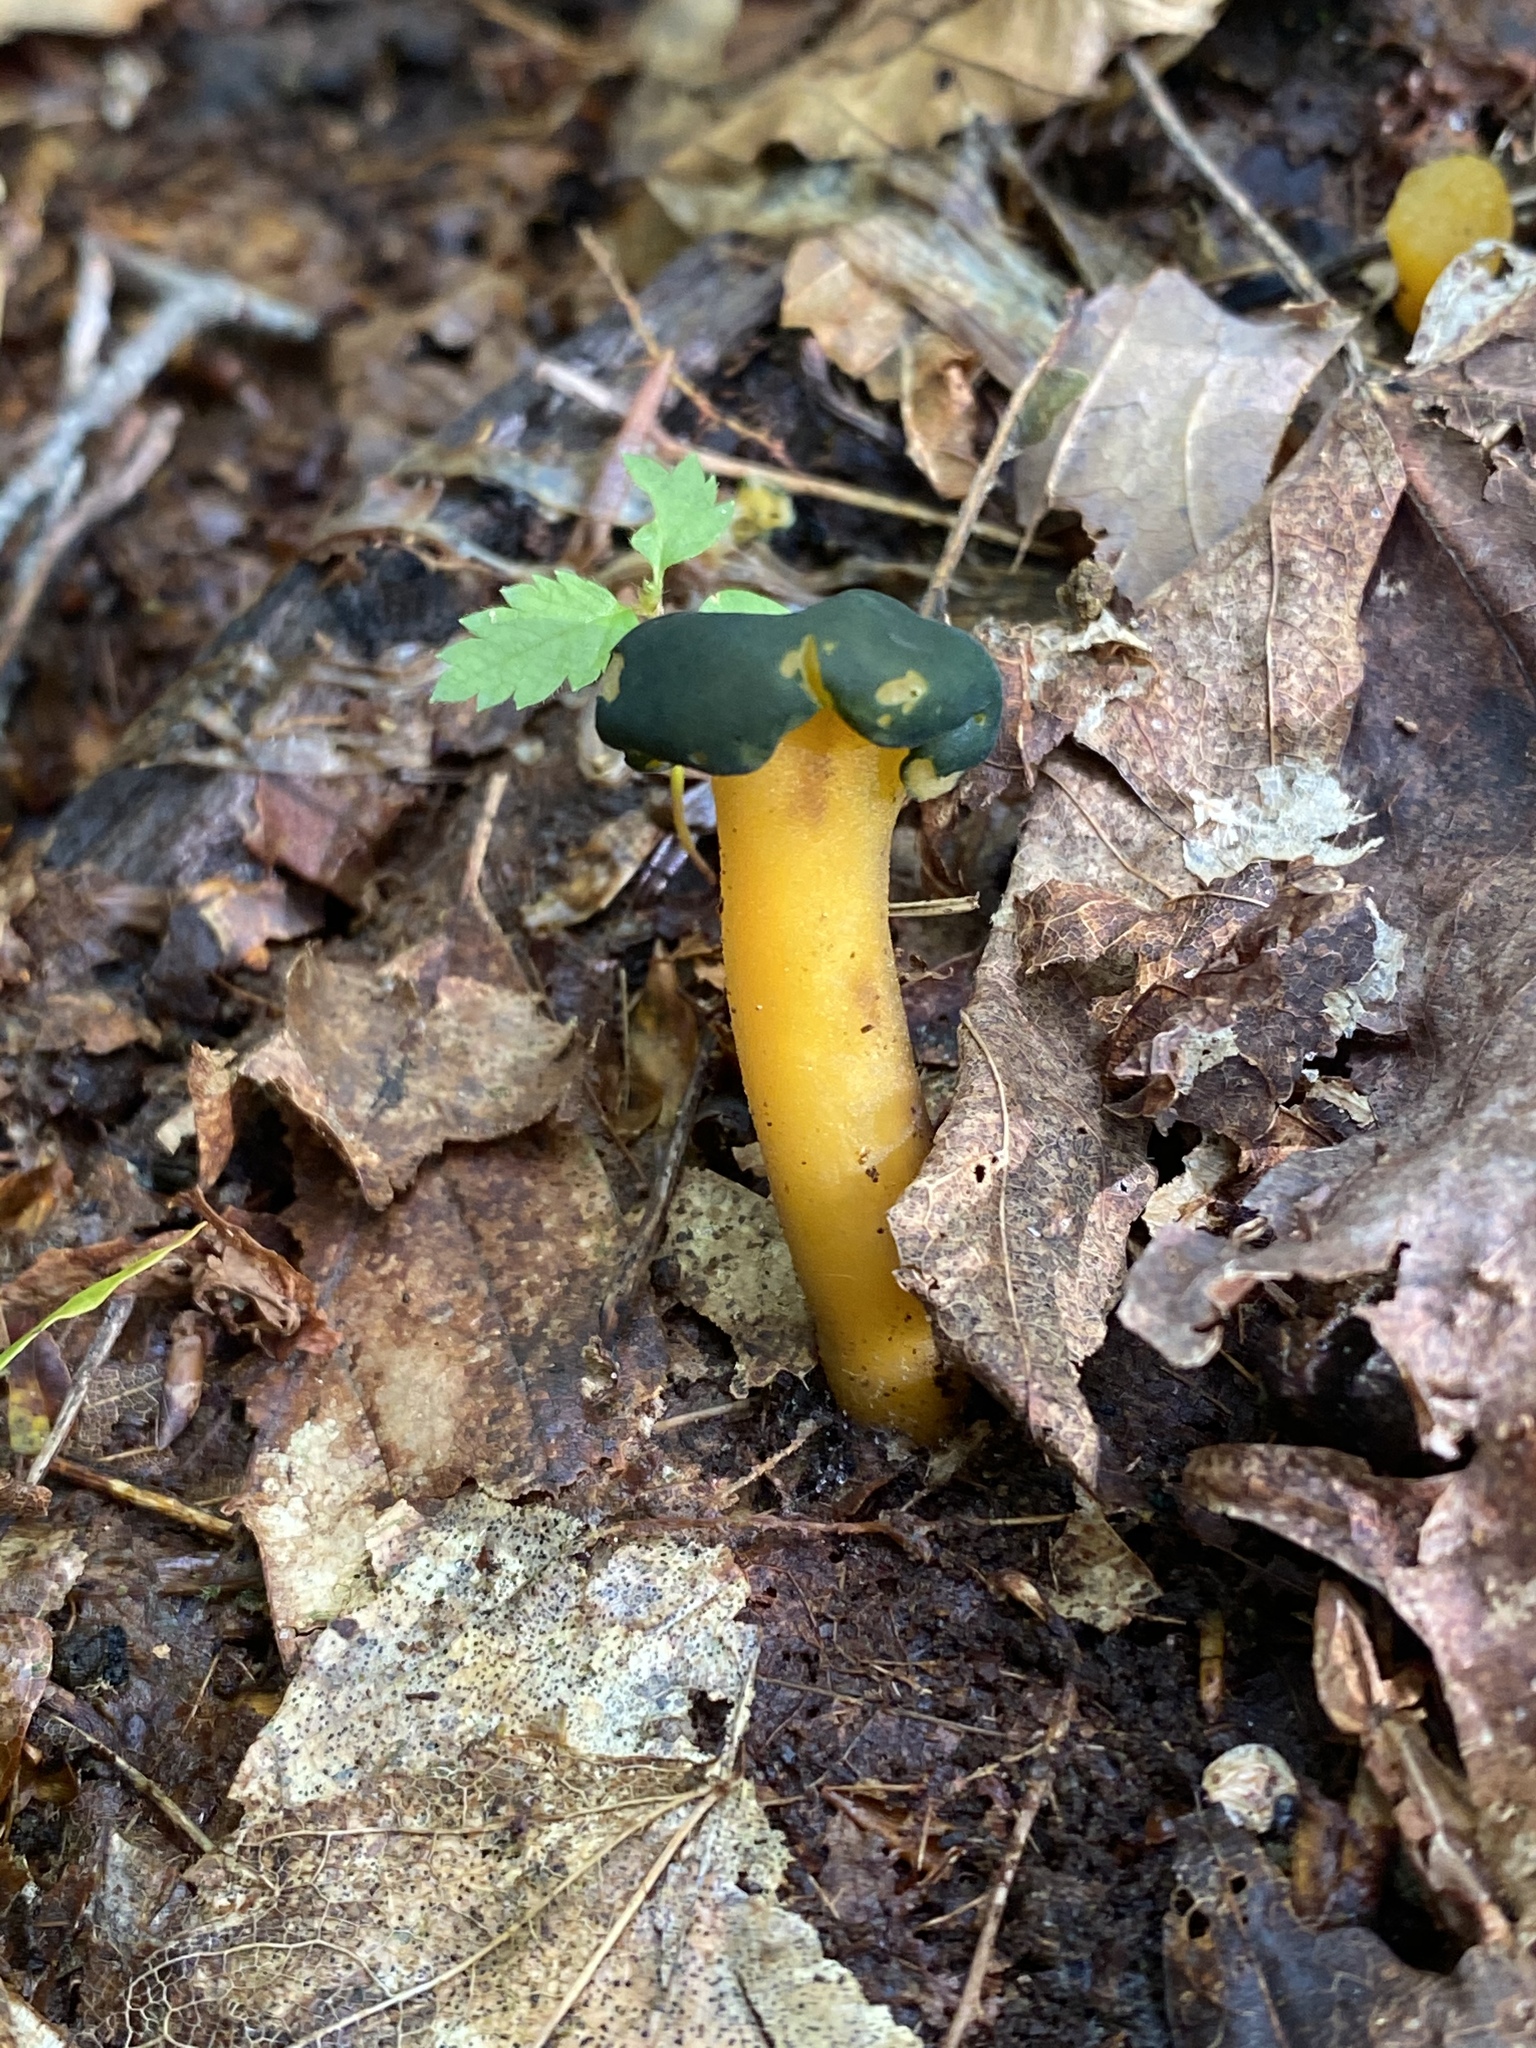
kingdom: Fungi
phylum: Ascomycota
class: Leotiomycetes
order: Leotiales
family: Leotiaceae
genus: Leotia
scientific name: Leotia lubrica
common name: Jellybaby
